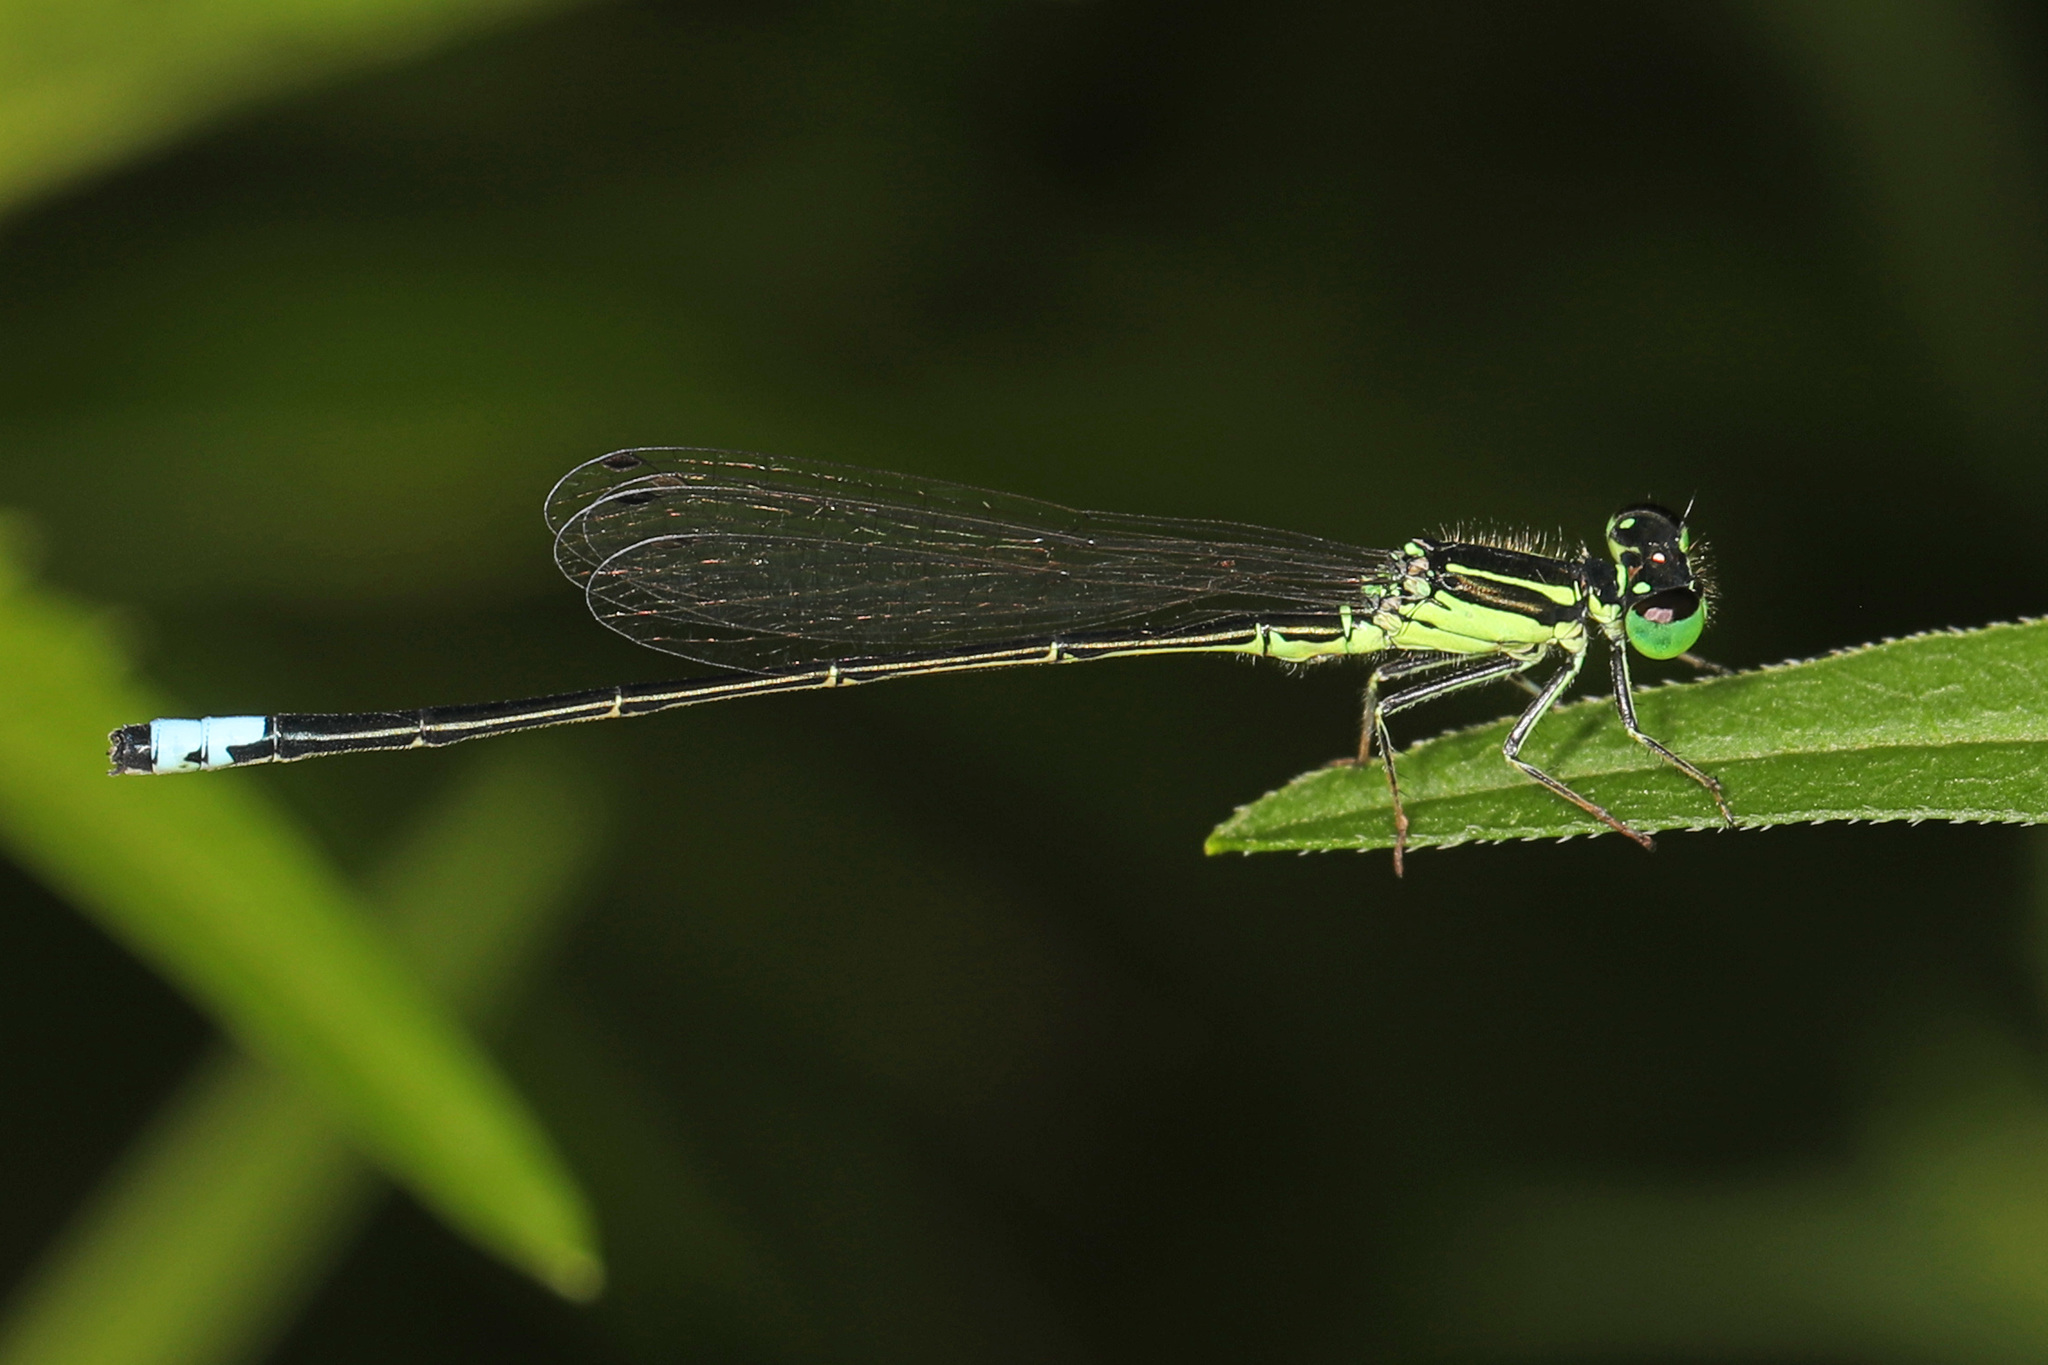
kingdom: Animalia
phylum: Arthropoda
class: Insecta
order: Odonata
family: Coenagrionidae
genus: Ischnura
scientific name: Ischnura verticalis
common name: Eastern forktail
